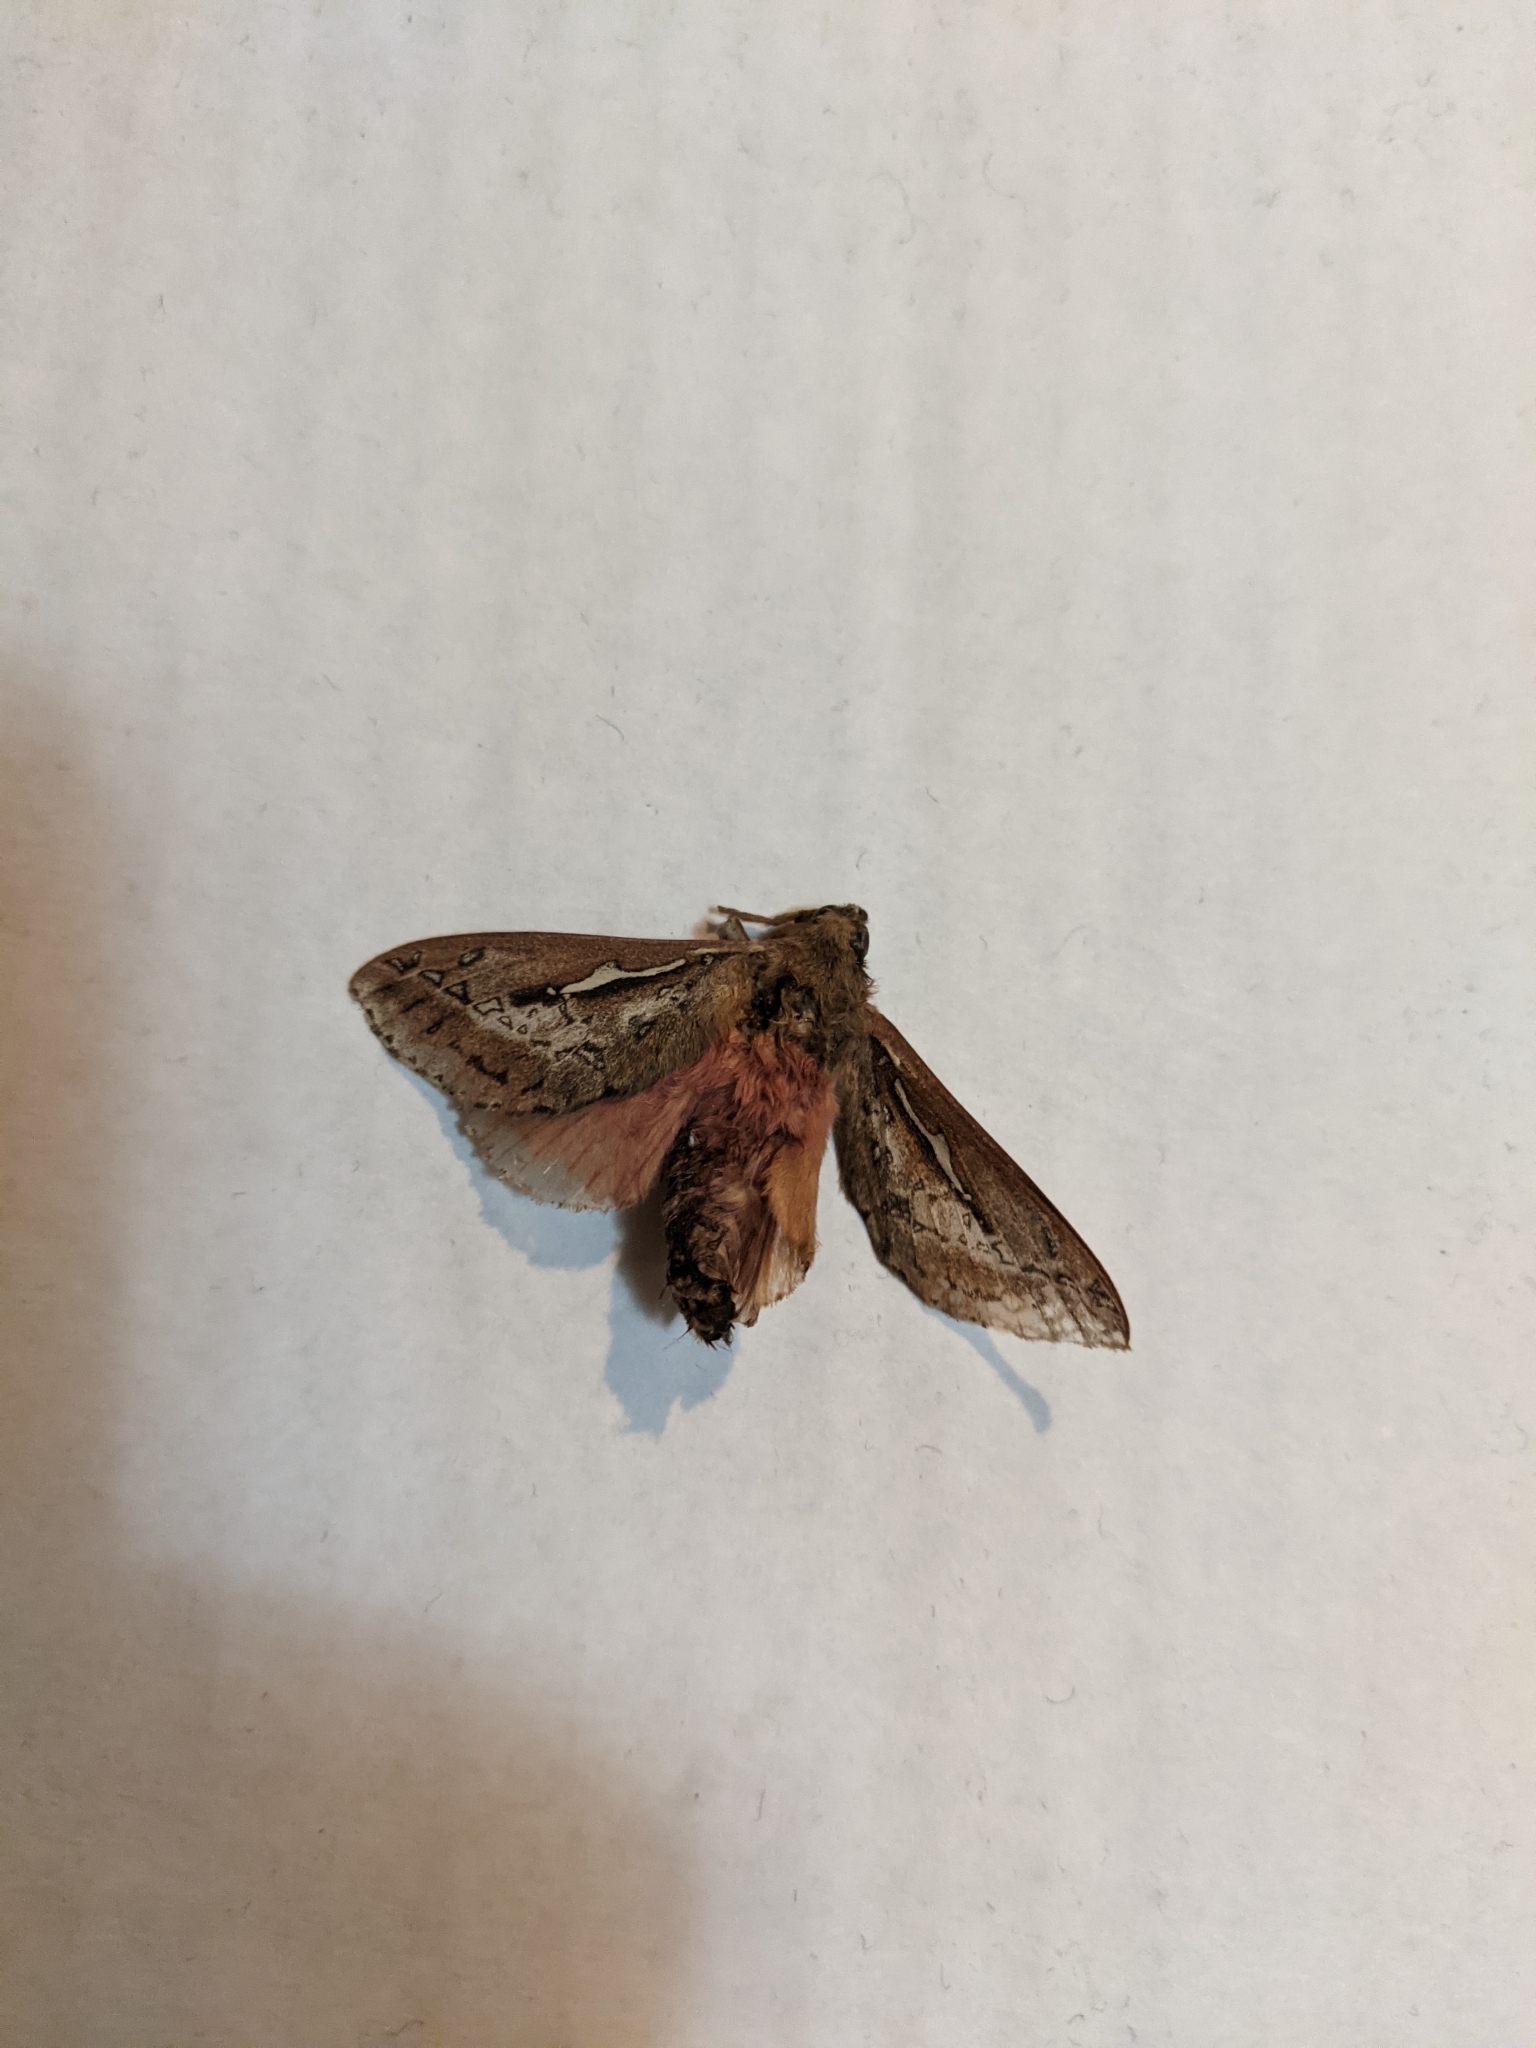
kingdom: Animalia
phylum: Arthropoda
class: Insecta
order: Lepidoptera
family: Hepialidae
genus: Wiseana
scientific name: Wiseana signata
